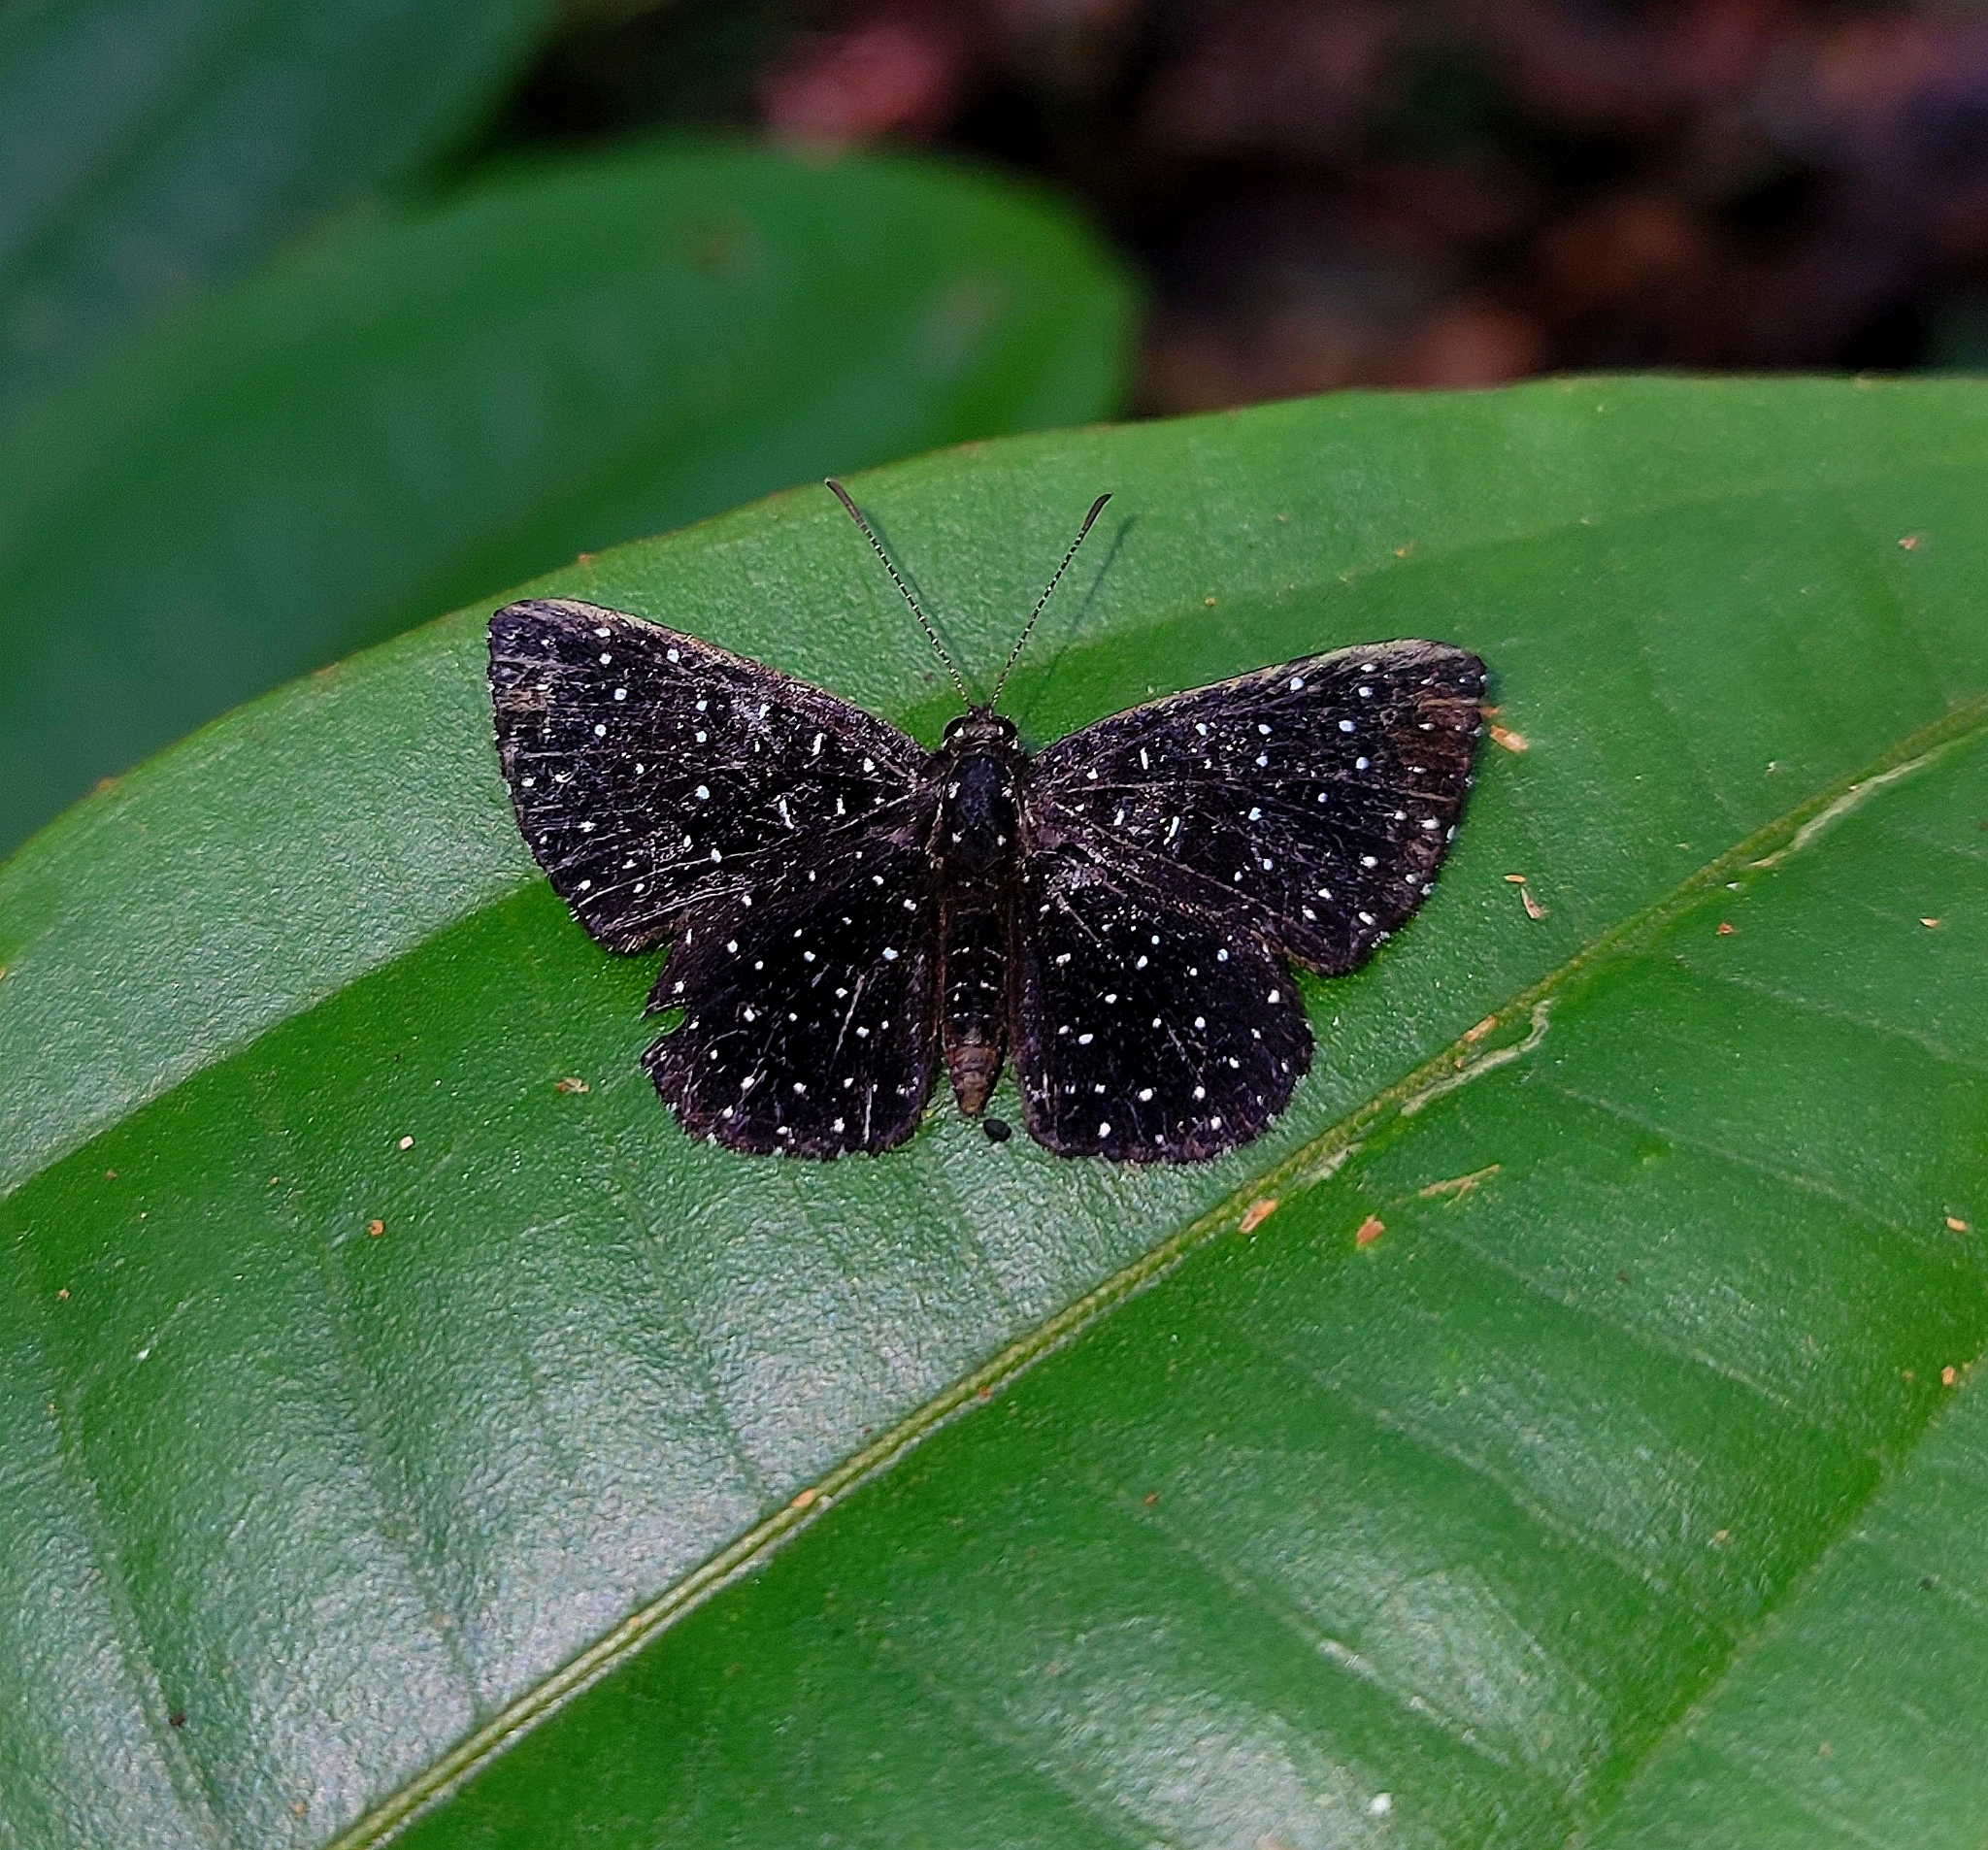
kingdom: Animalia
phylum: Arthropoda
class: Insecta
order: Lepidoptera
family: Riodinidae
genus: Echydna
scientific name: Echydna punctata
